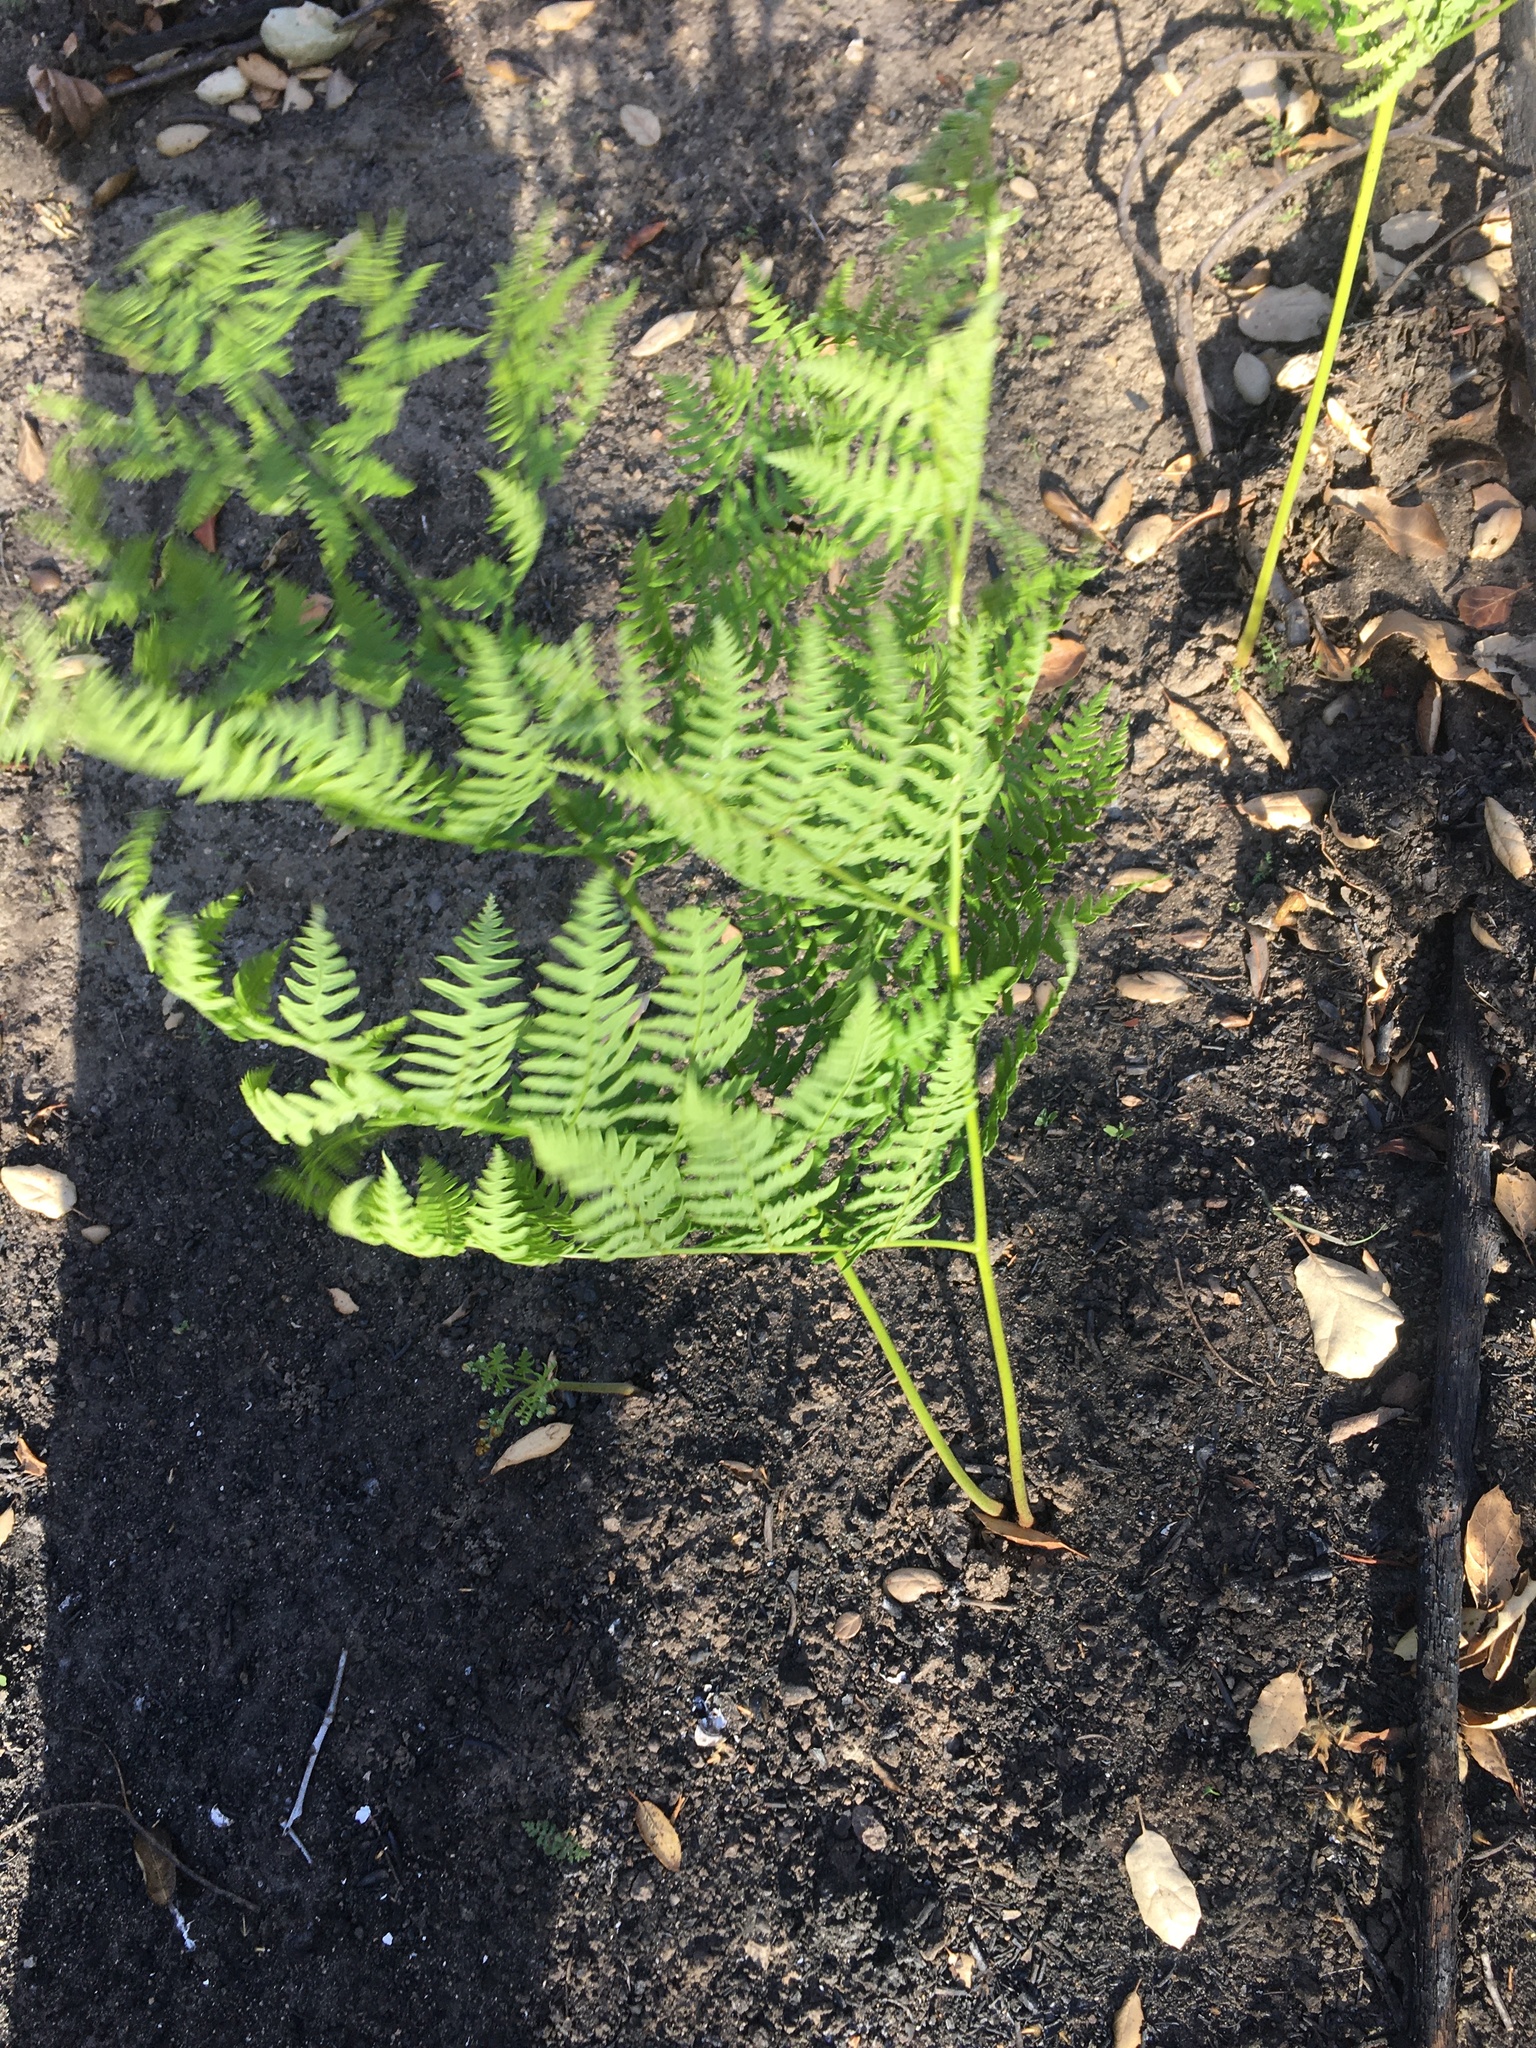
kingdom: Plantae
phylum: Tracheophyta
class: Polypodiopsida
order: Polypodiales
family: Dennstaedtiaceae
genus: Pteridium
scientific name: Pteridium aquilinum
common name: Bracken
